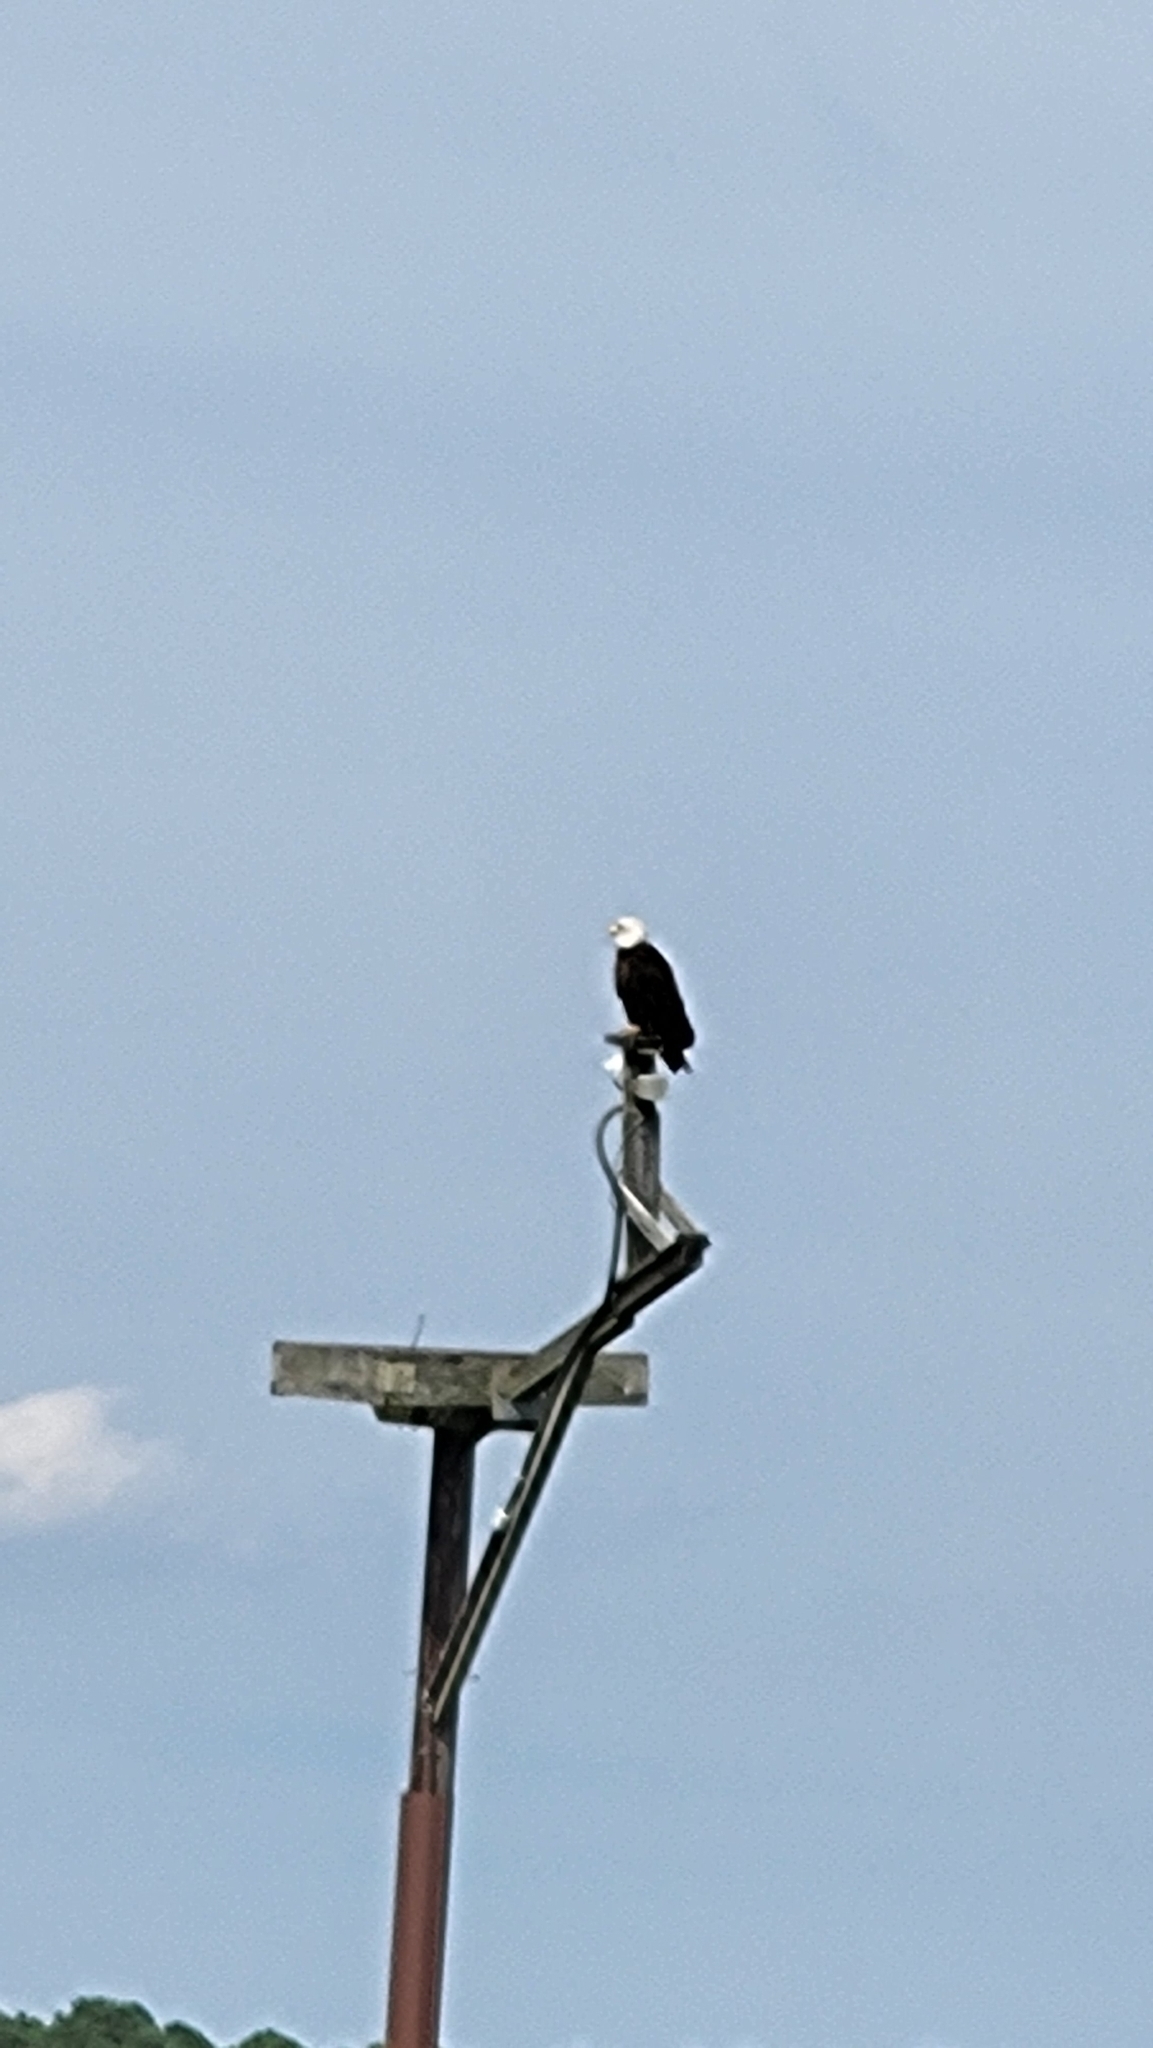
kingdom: Animalia
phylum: Chordata
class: Aves
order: Accipitriformes
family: Accipitridae
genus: Haliaeetus
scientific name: Haliaeetus leucocephalus
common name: Bald eagle
